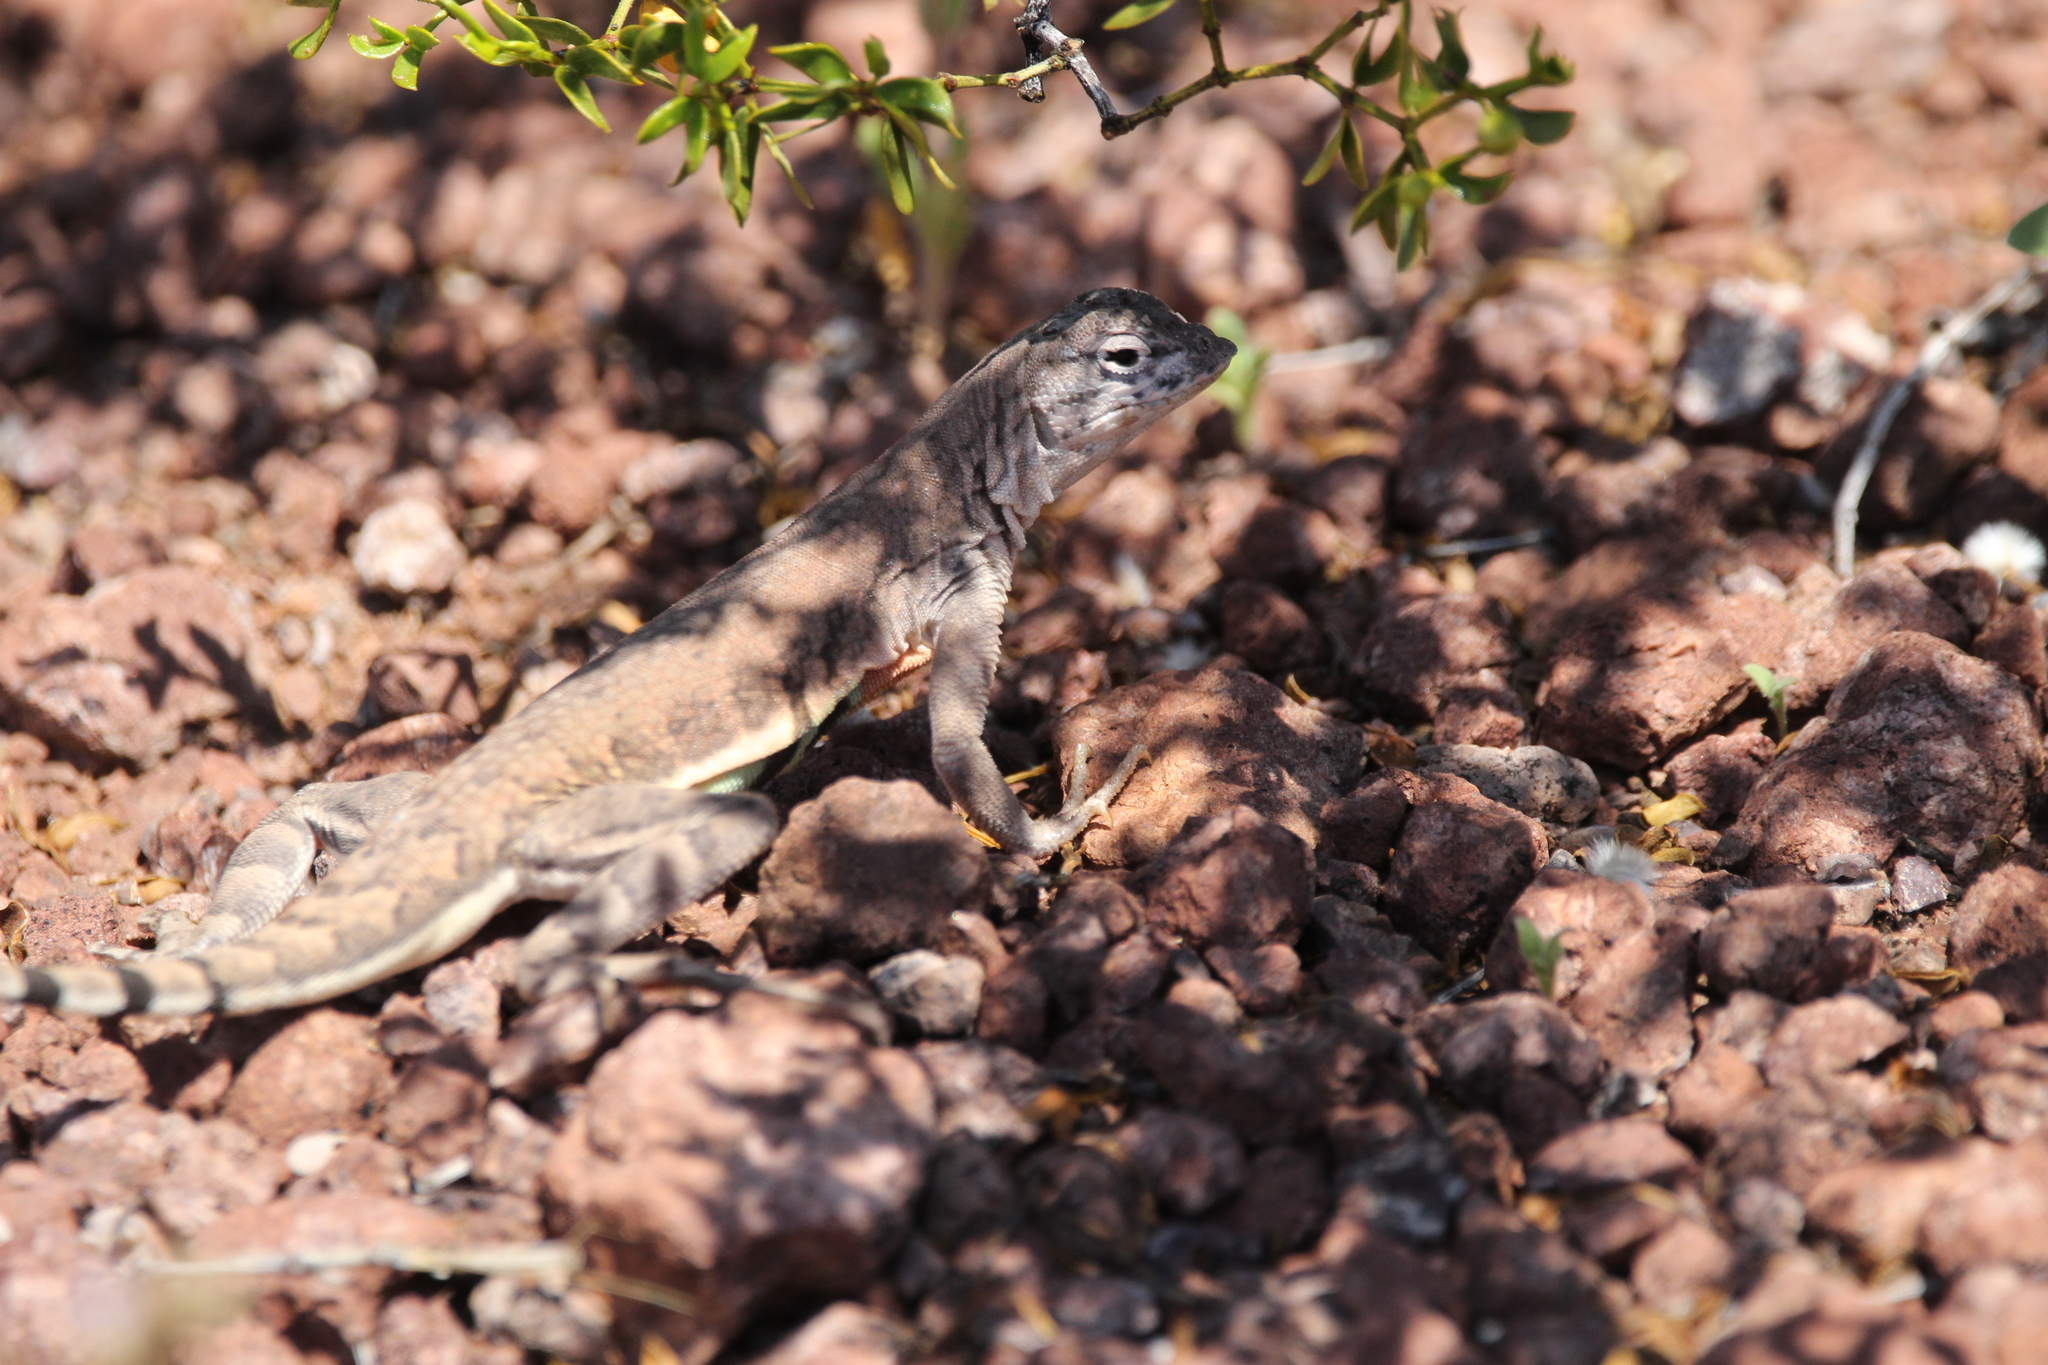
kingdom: Animalia
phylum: Chordata
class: Squamata
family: Phrynosomatidae
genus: Callisaurus
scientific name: Callisaurus draconoides
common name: Zebra-tailed lizard
